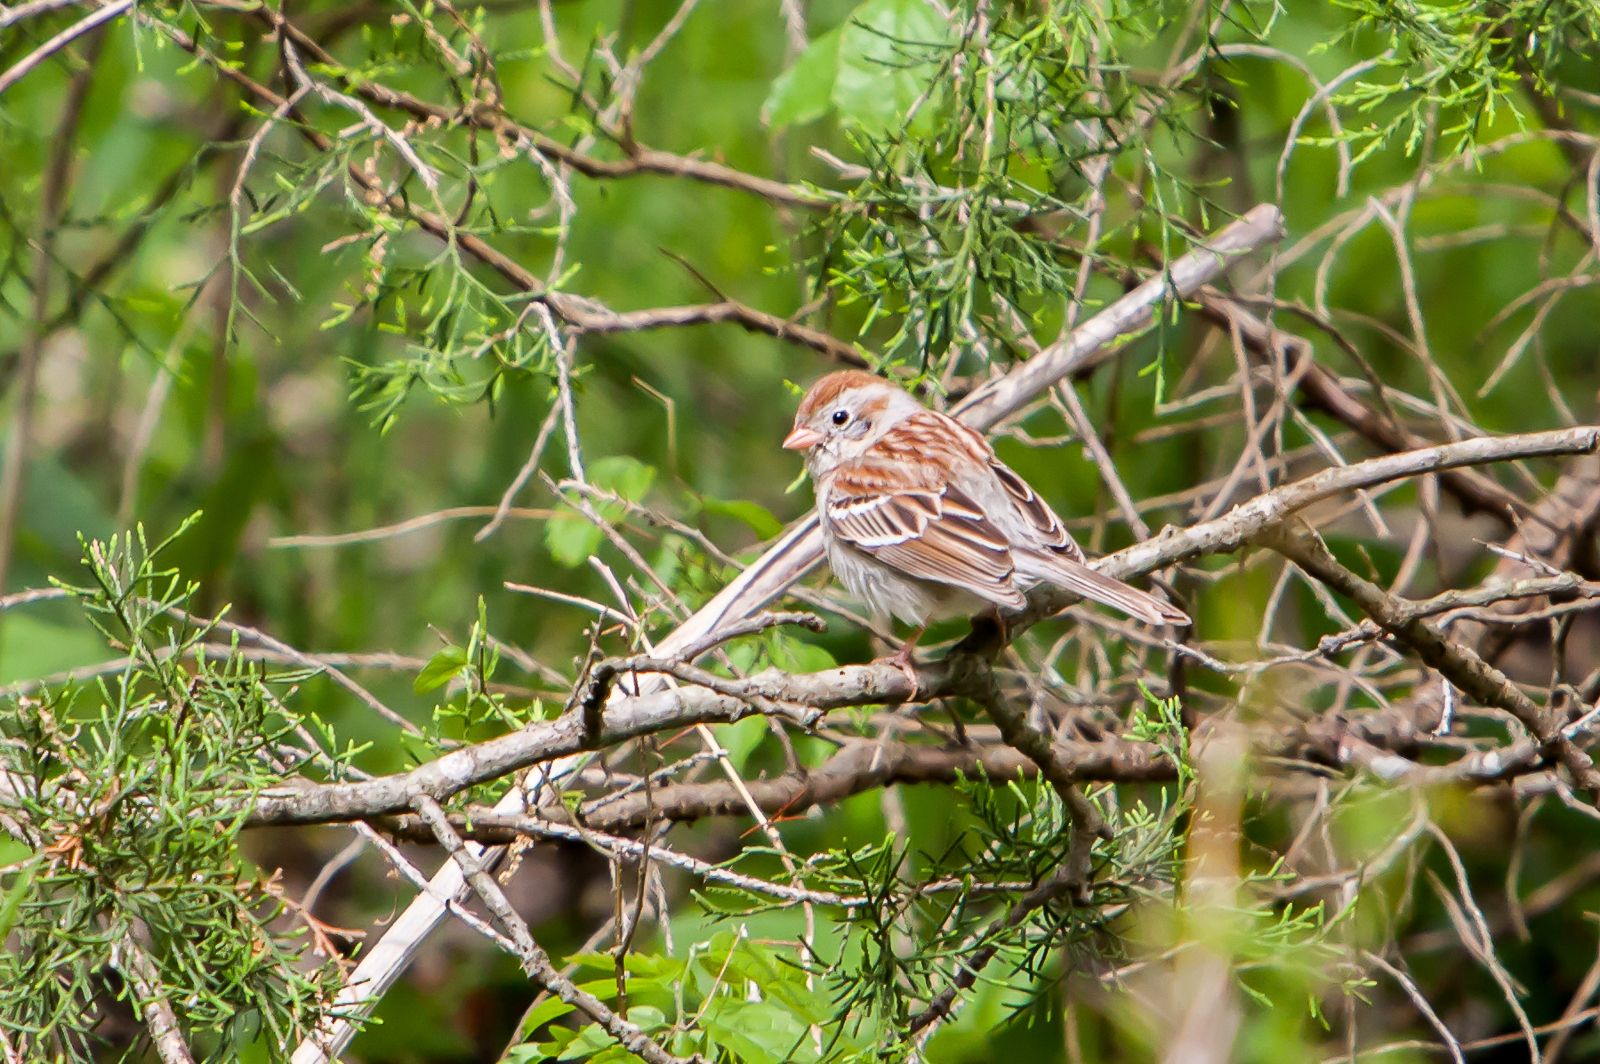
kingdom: Animalia
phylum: Chordata
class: Aves
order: Passeriformes
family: Passerellidae
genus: Spizella
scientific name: Spizella pusilla
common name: Field sparrow
